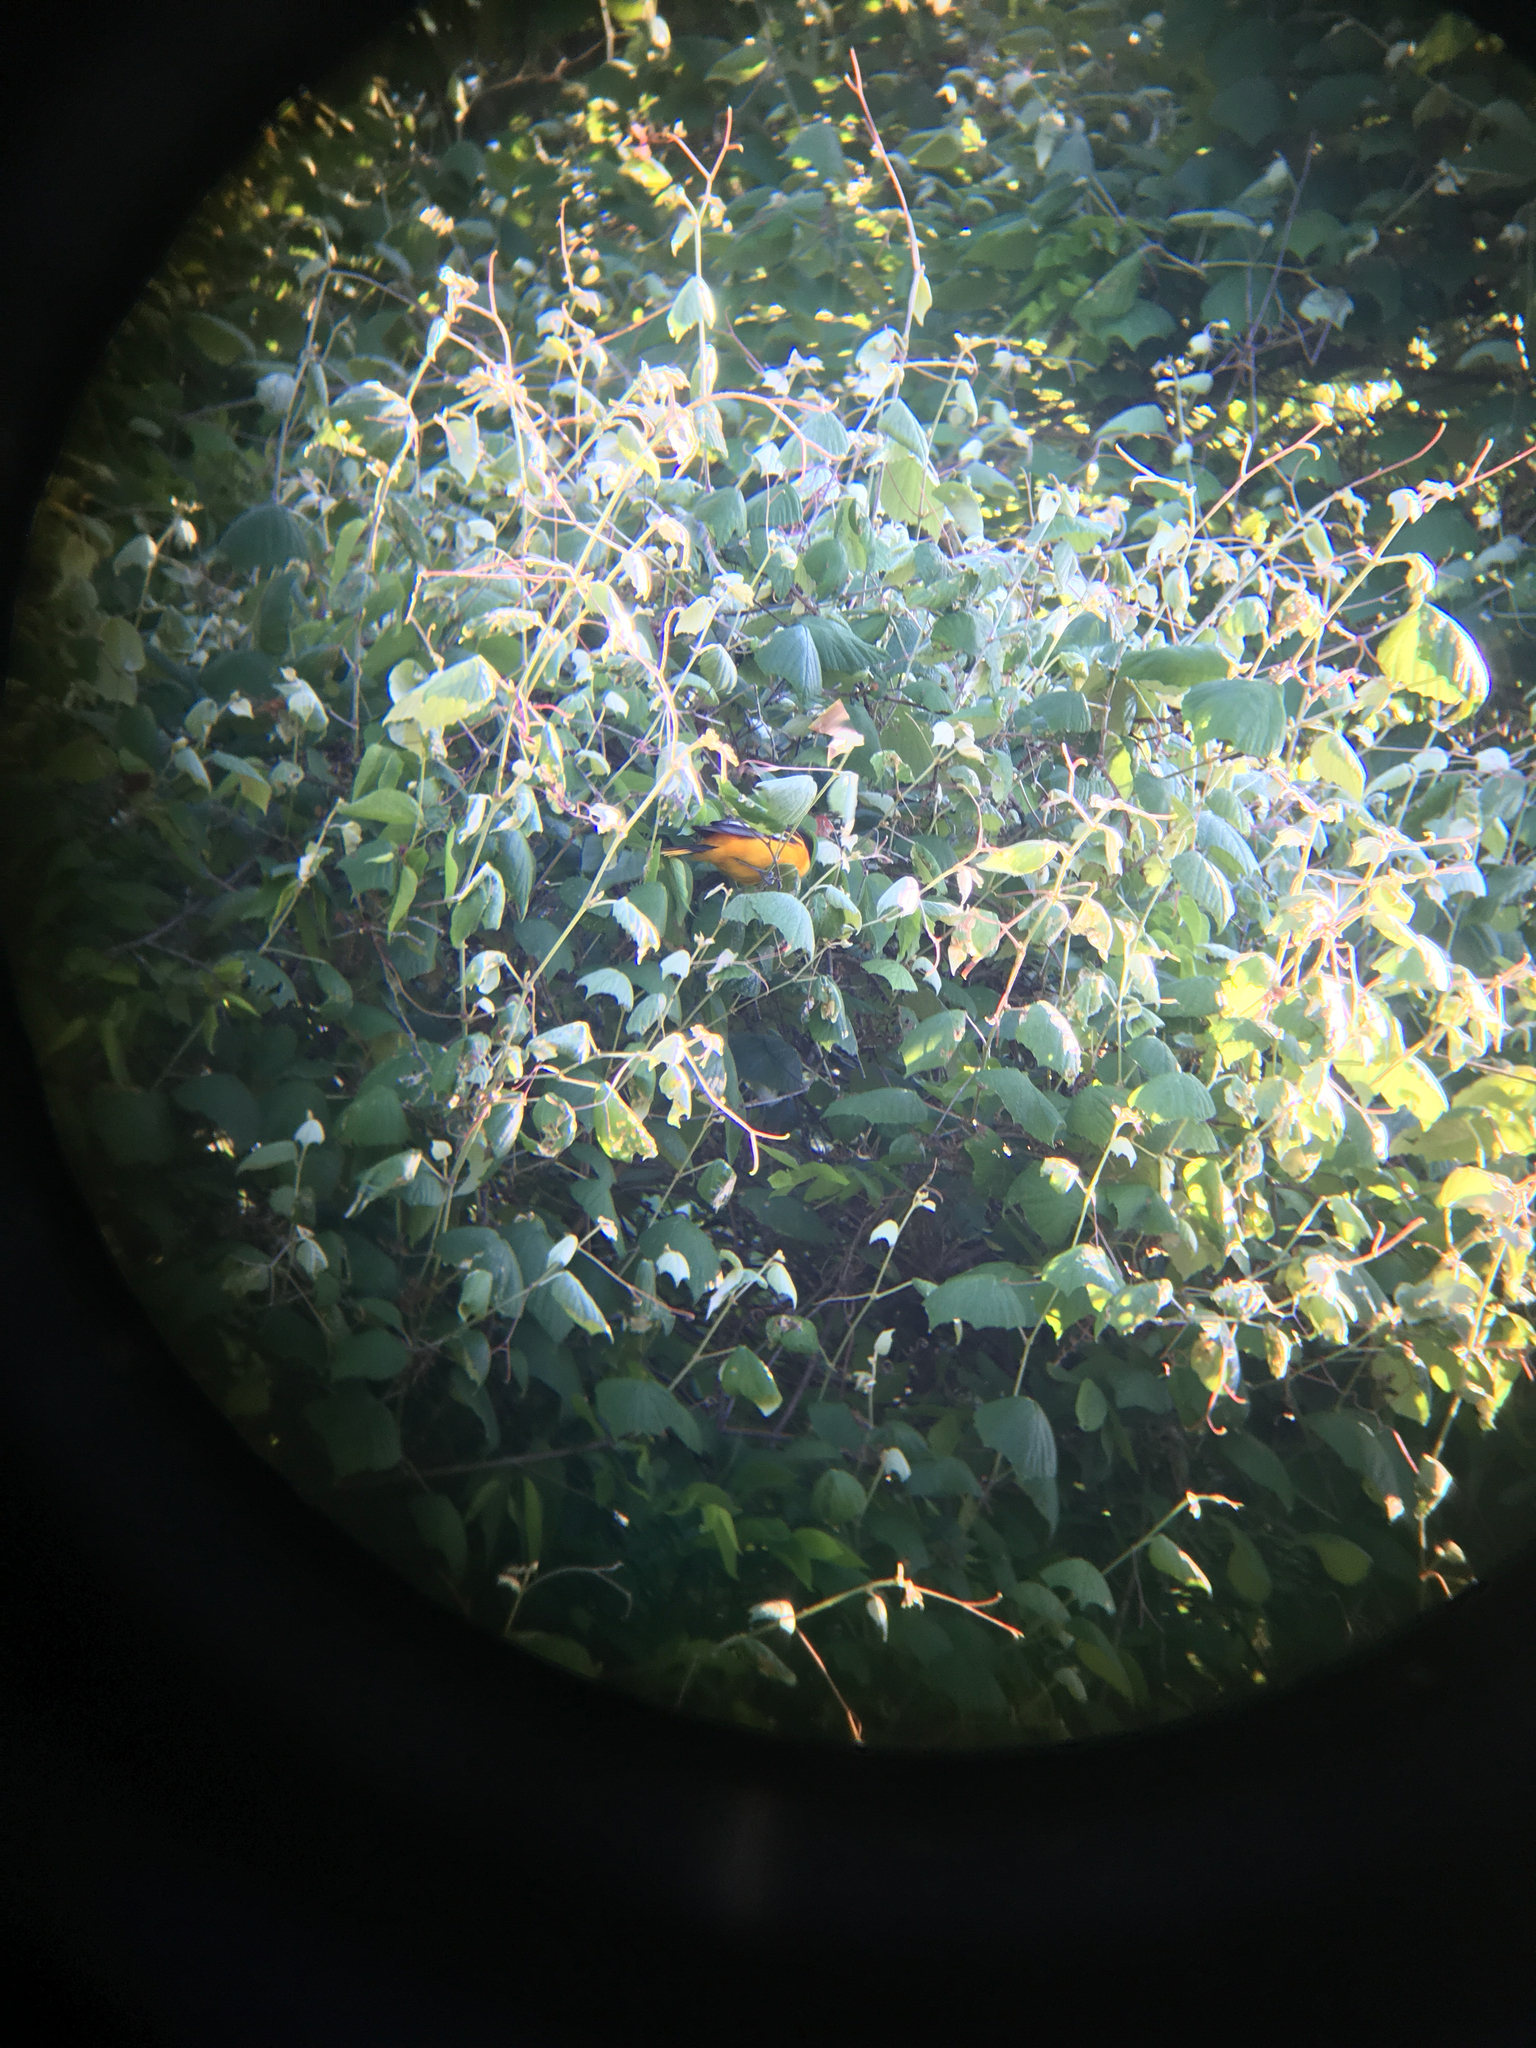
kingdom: Animalia
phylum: Chordata
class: Aves
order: Passeriformes
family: Icteridae
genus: Icterus
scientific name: Icterus galbula
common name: Baltimore oriole
